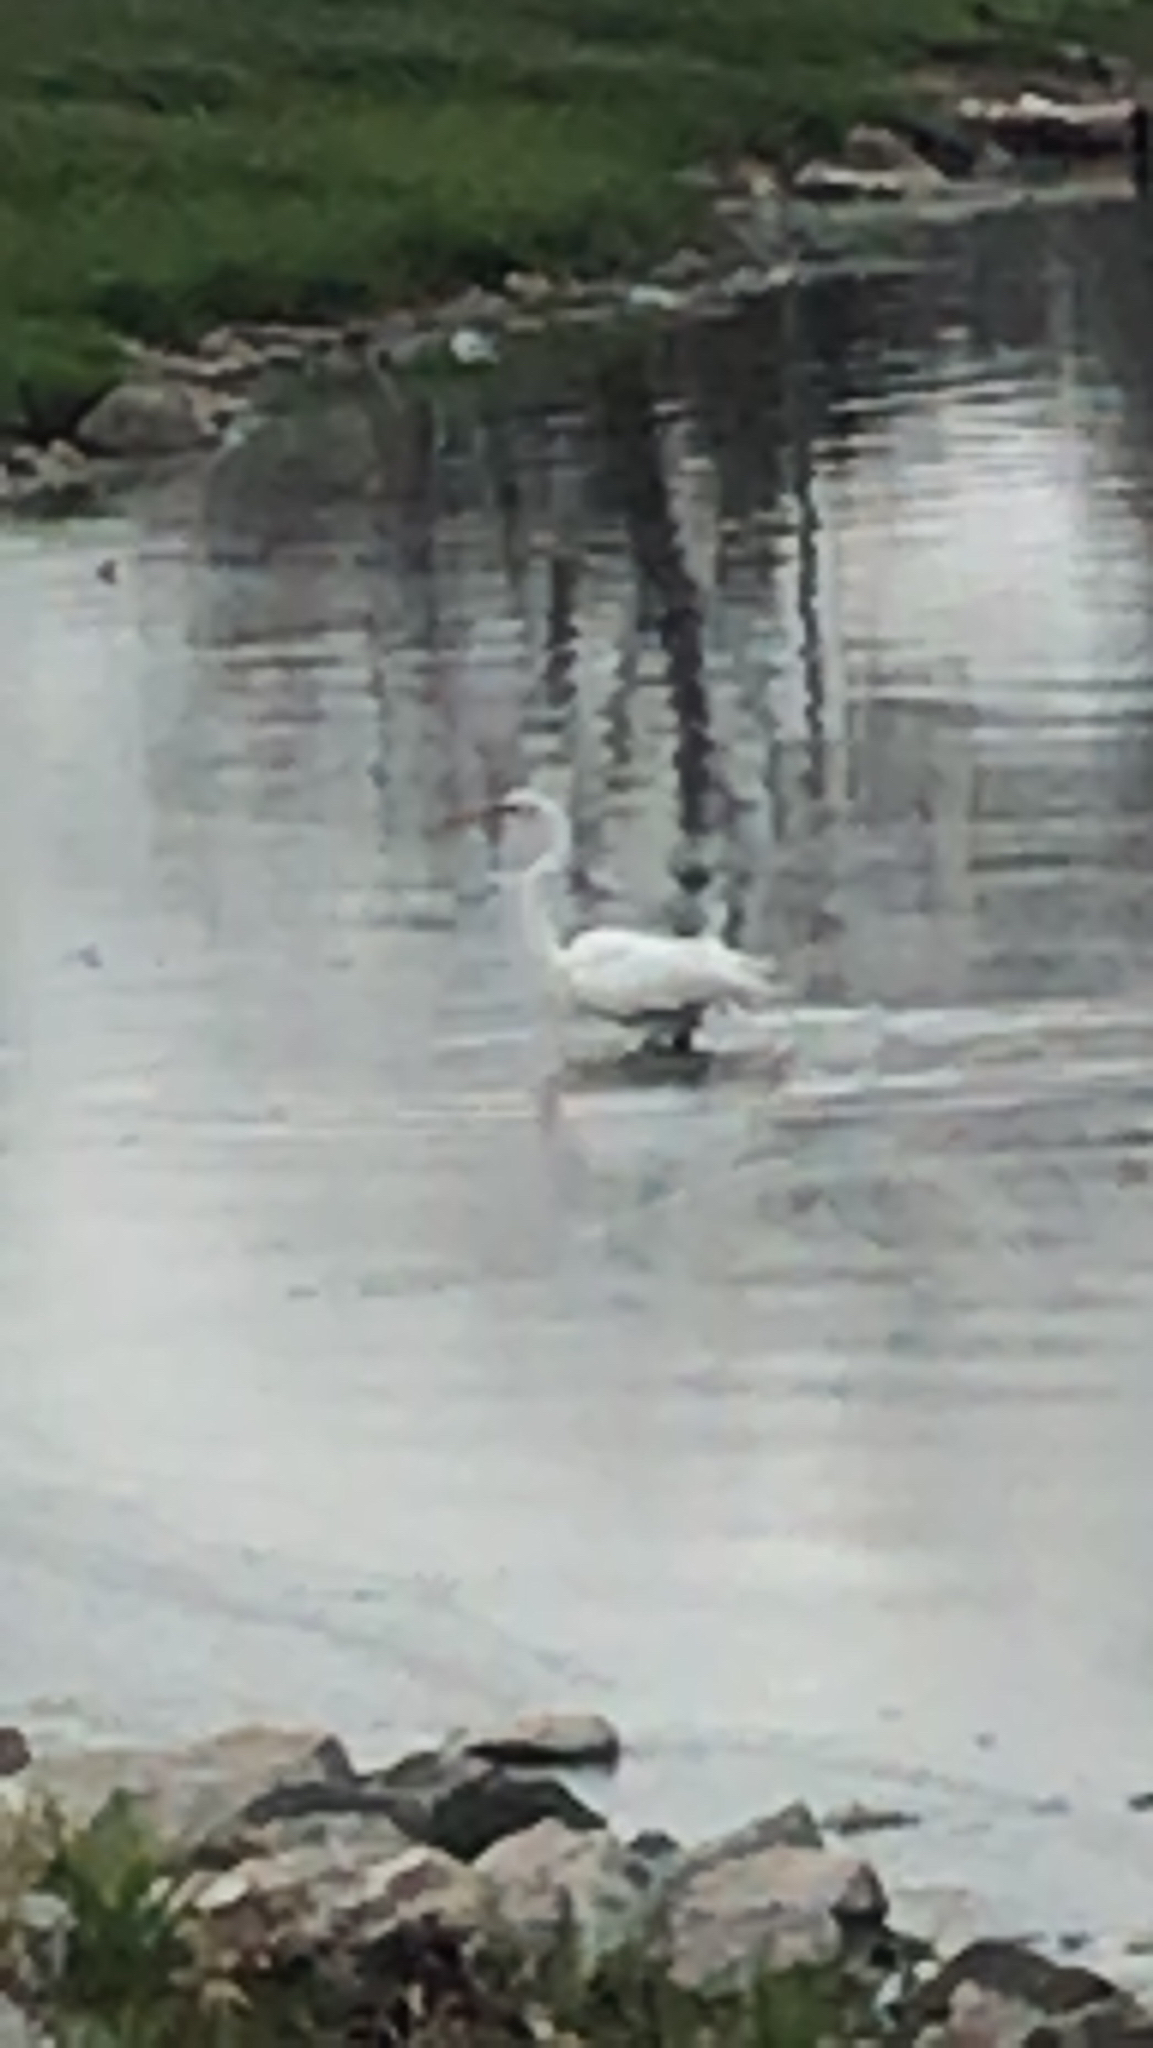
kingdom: Animalia
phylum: Chordata
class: Aves
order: Pelecaniformes
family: Ardeidae
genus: Ardea
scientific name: Ardea alba
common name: Great egret
